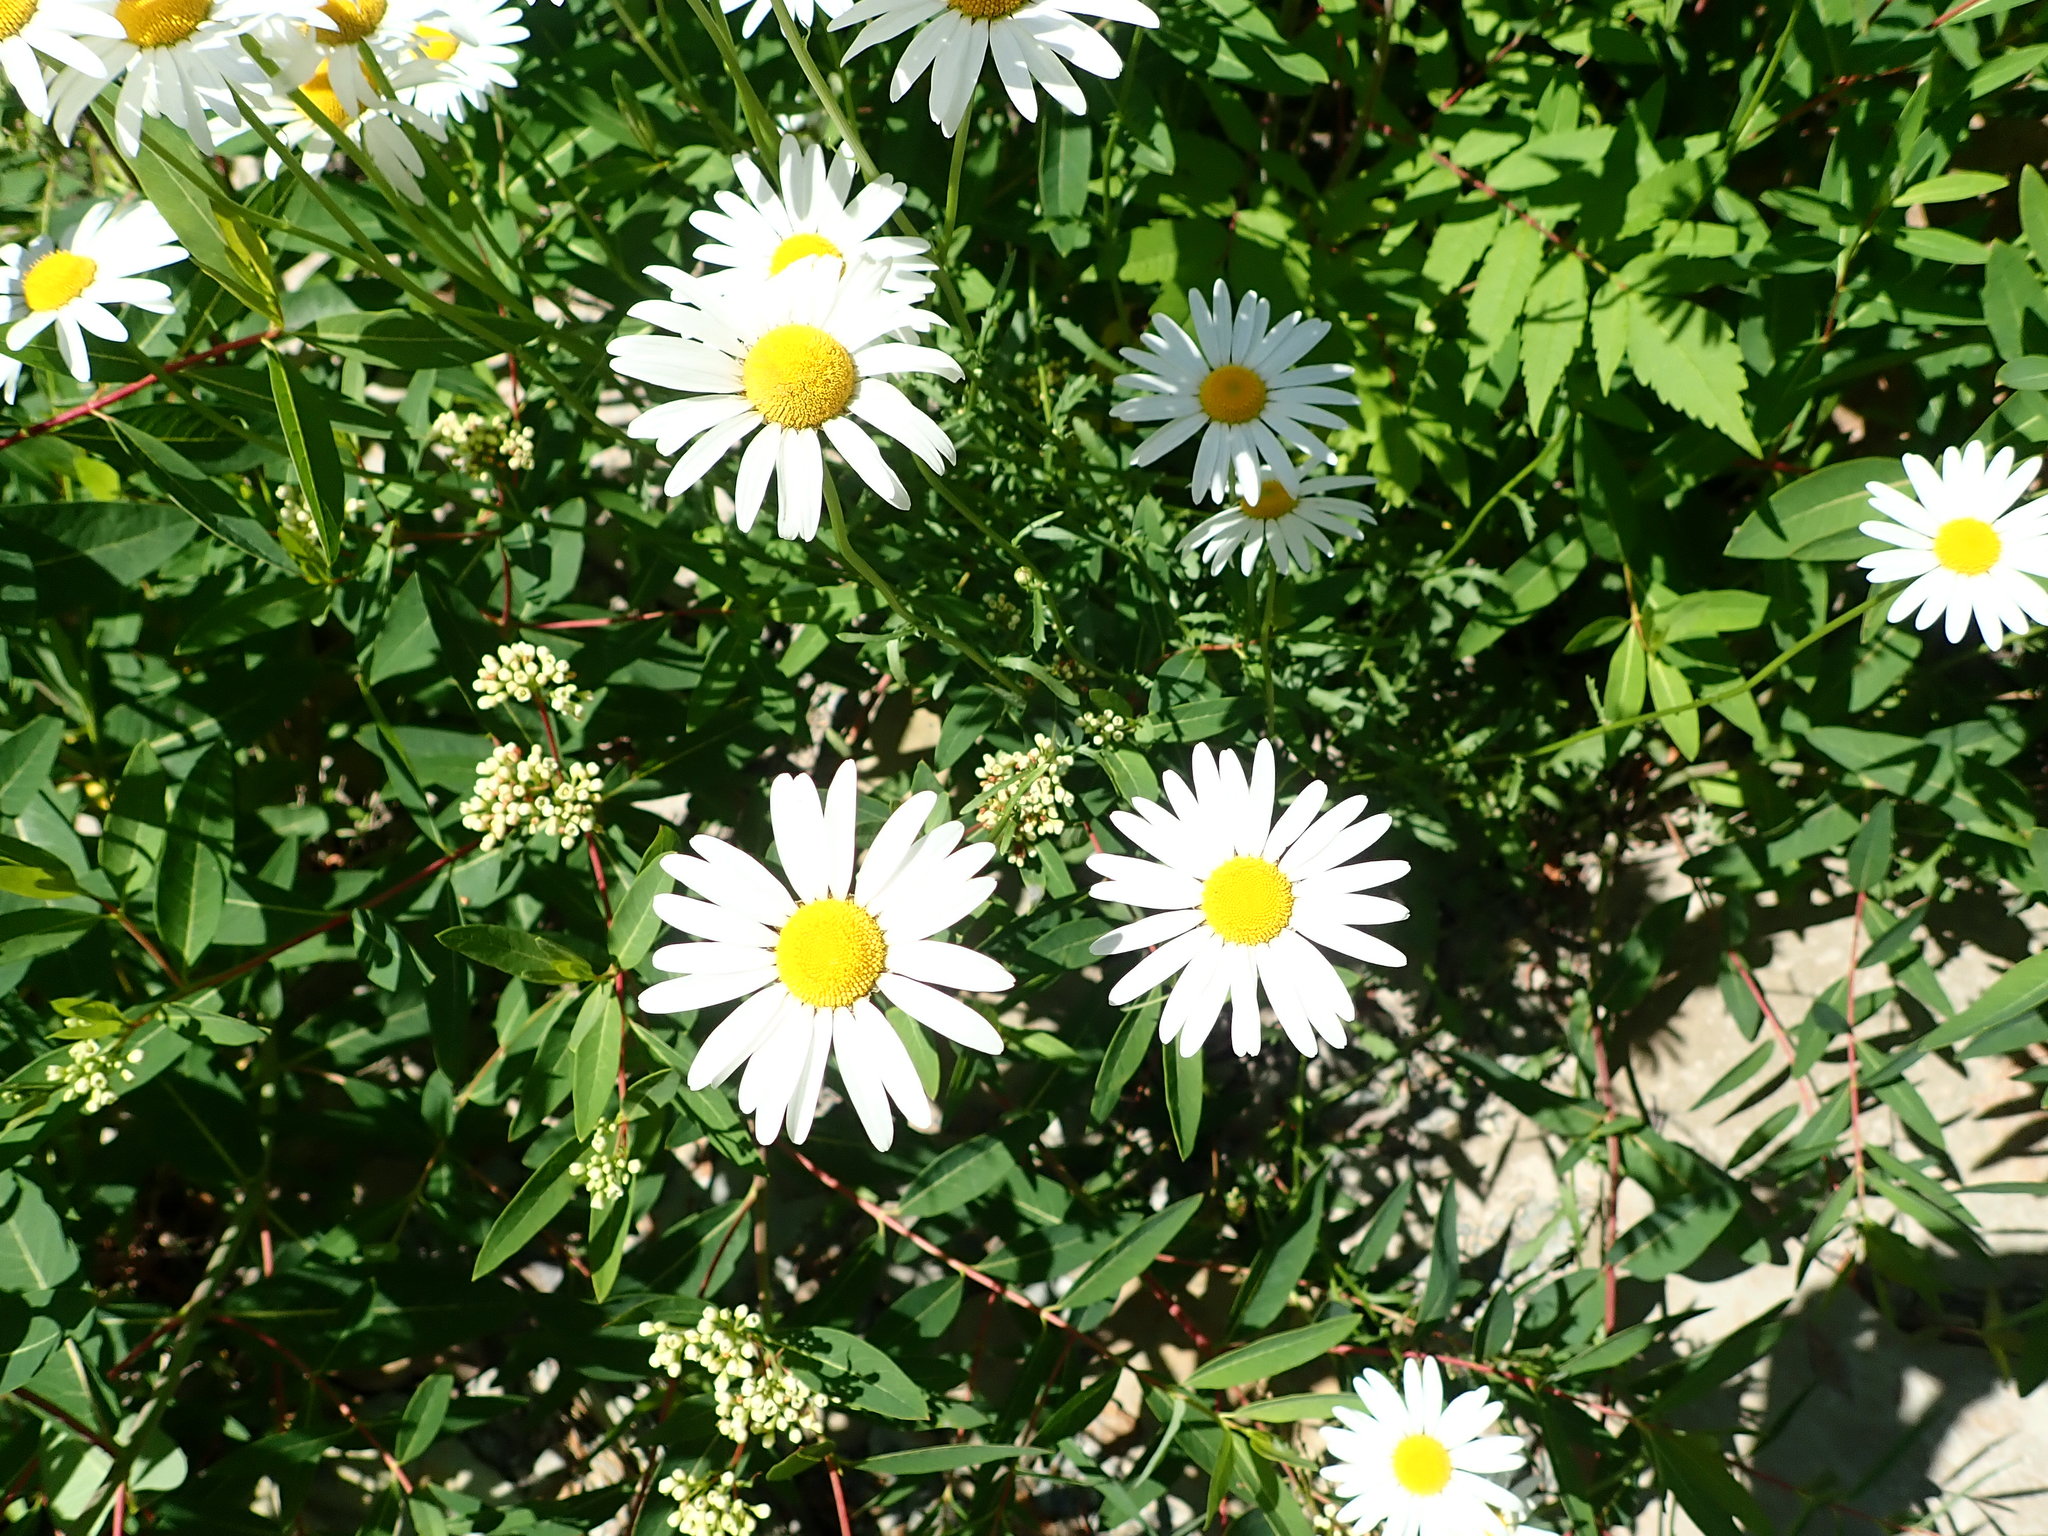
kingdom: Plantae
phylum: Tracheophyta
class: Magnoliopsida
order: Asterales
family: Asteraceae
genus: Leucanthemum
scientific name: Leucanthemum vulgare
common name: Oxeye daisy
